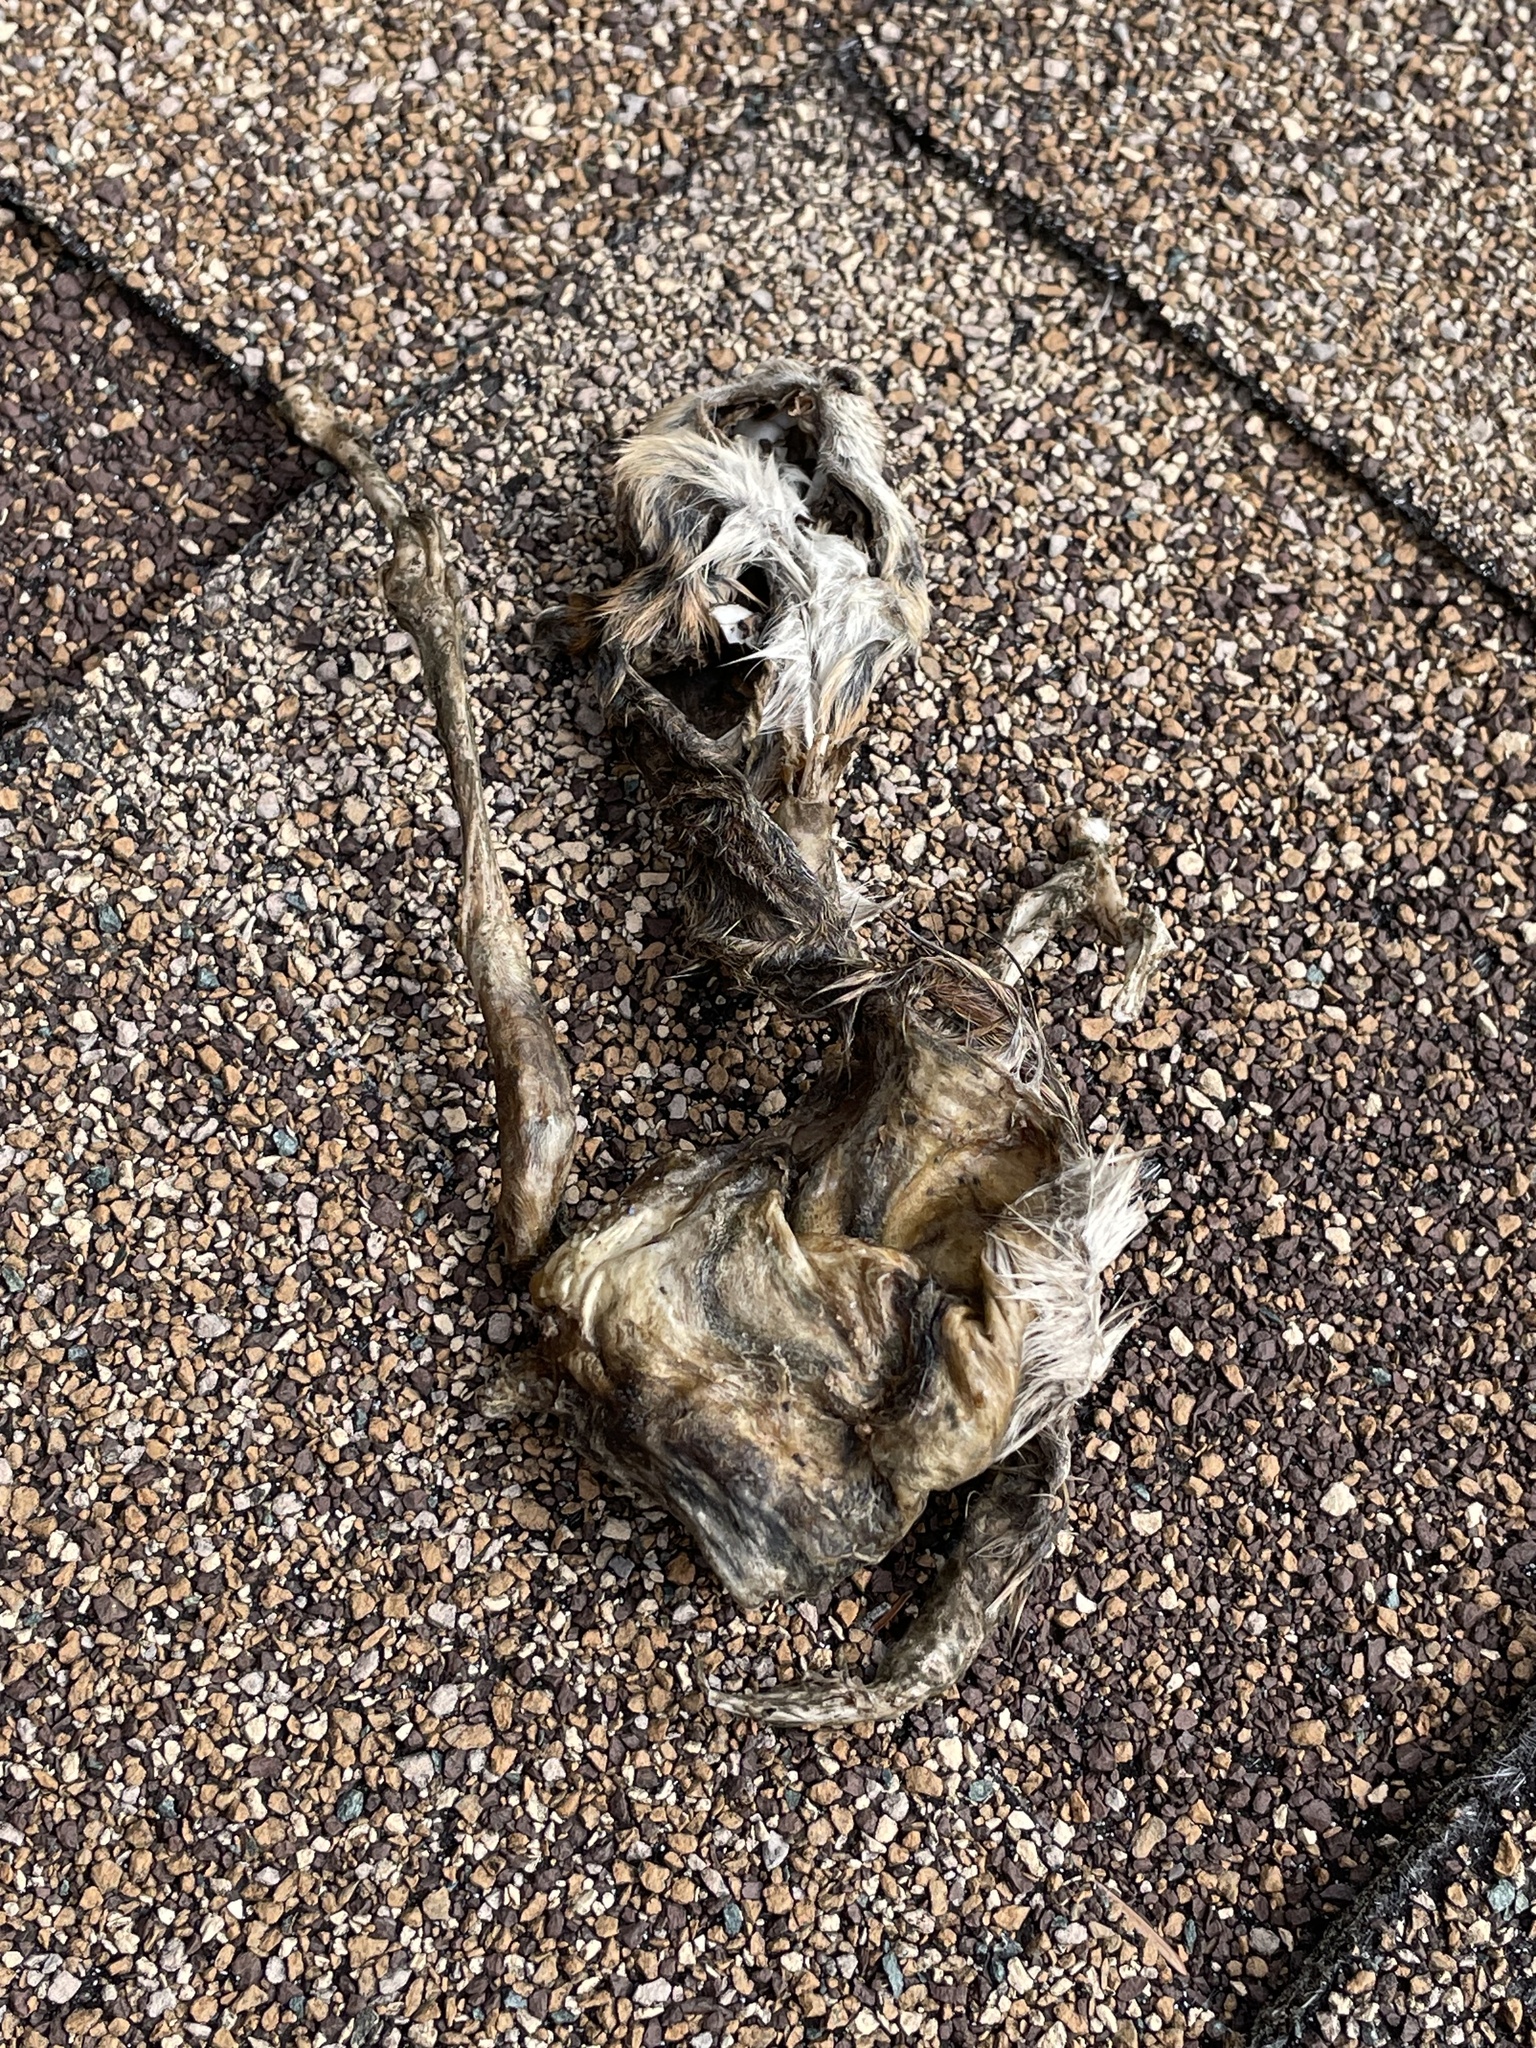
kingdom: Animalia
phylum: Chordata
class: Mammalia
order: Rodentia
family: Sciuridae
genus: Tamias
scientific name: Tamias striatus
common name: Eastern chipmunk
